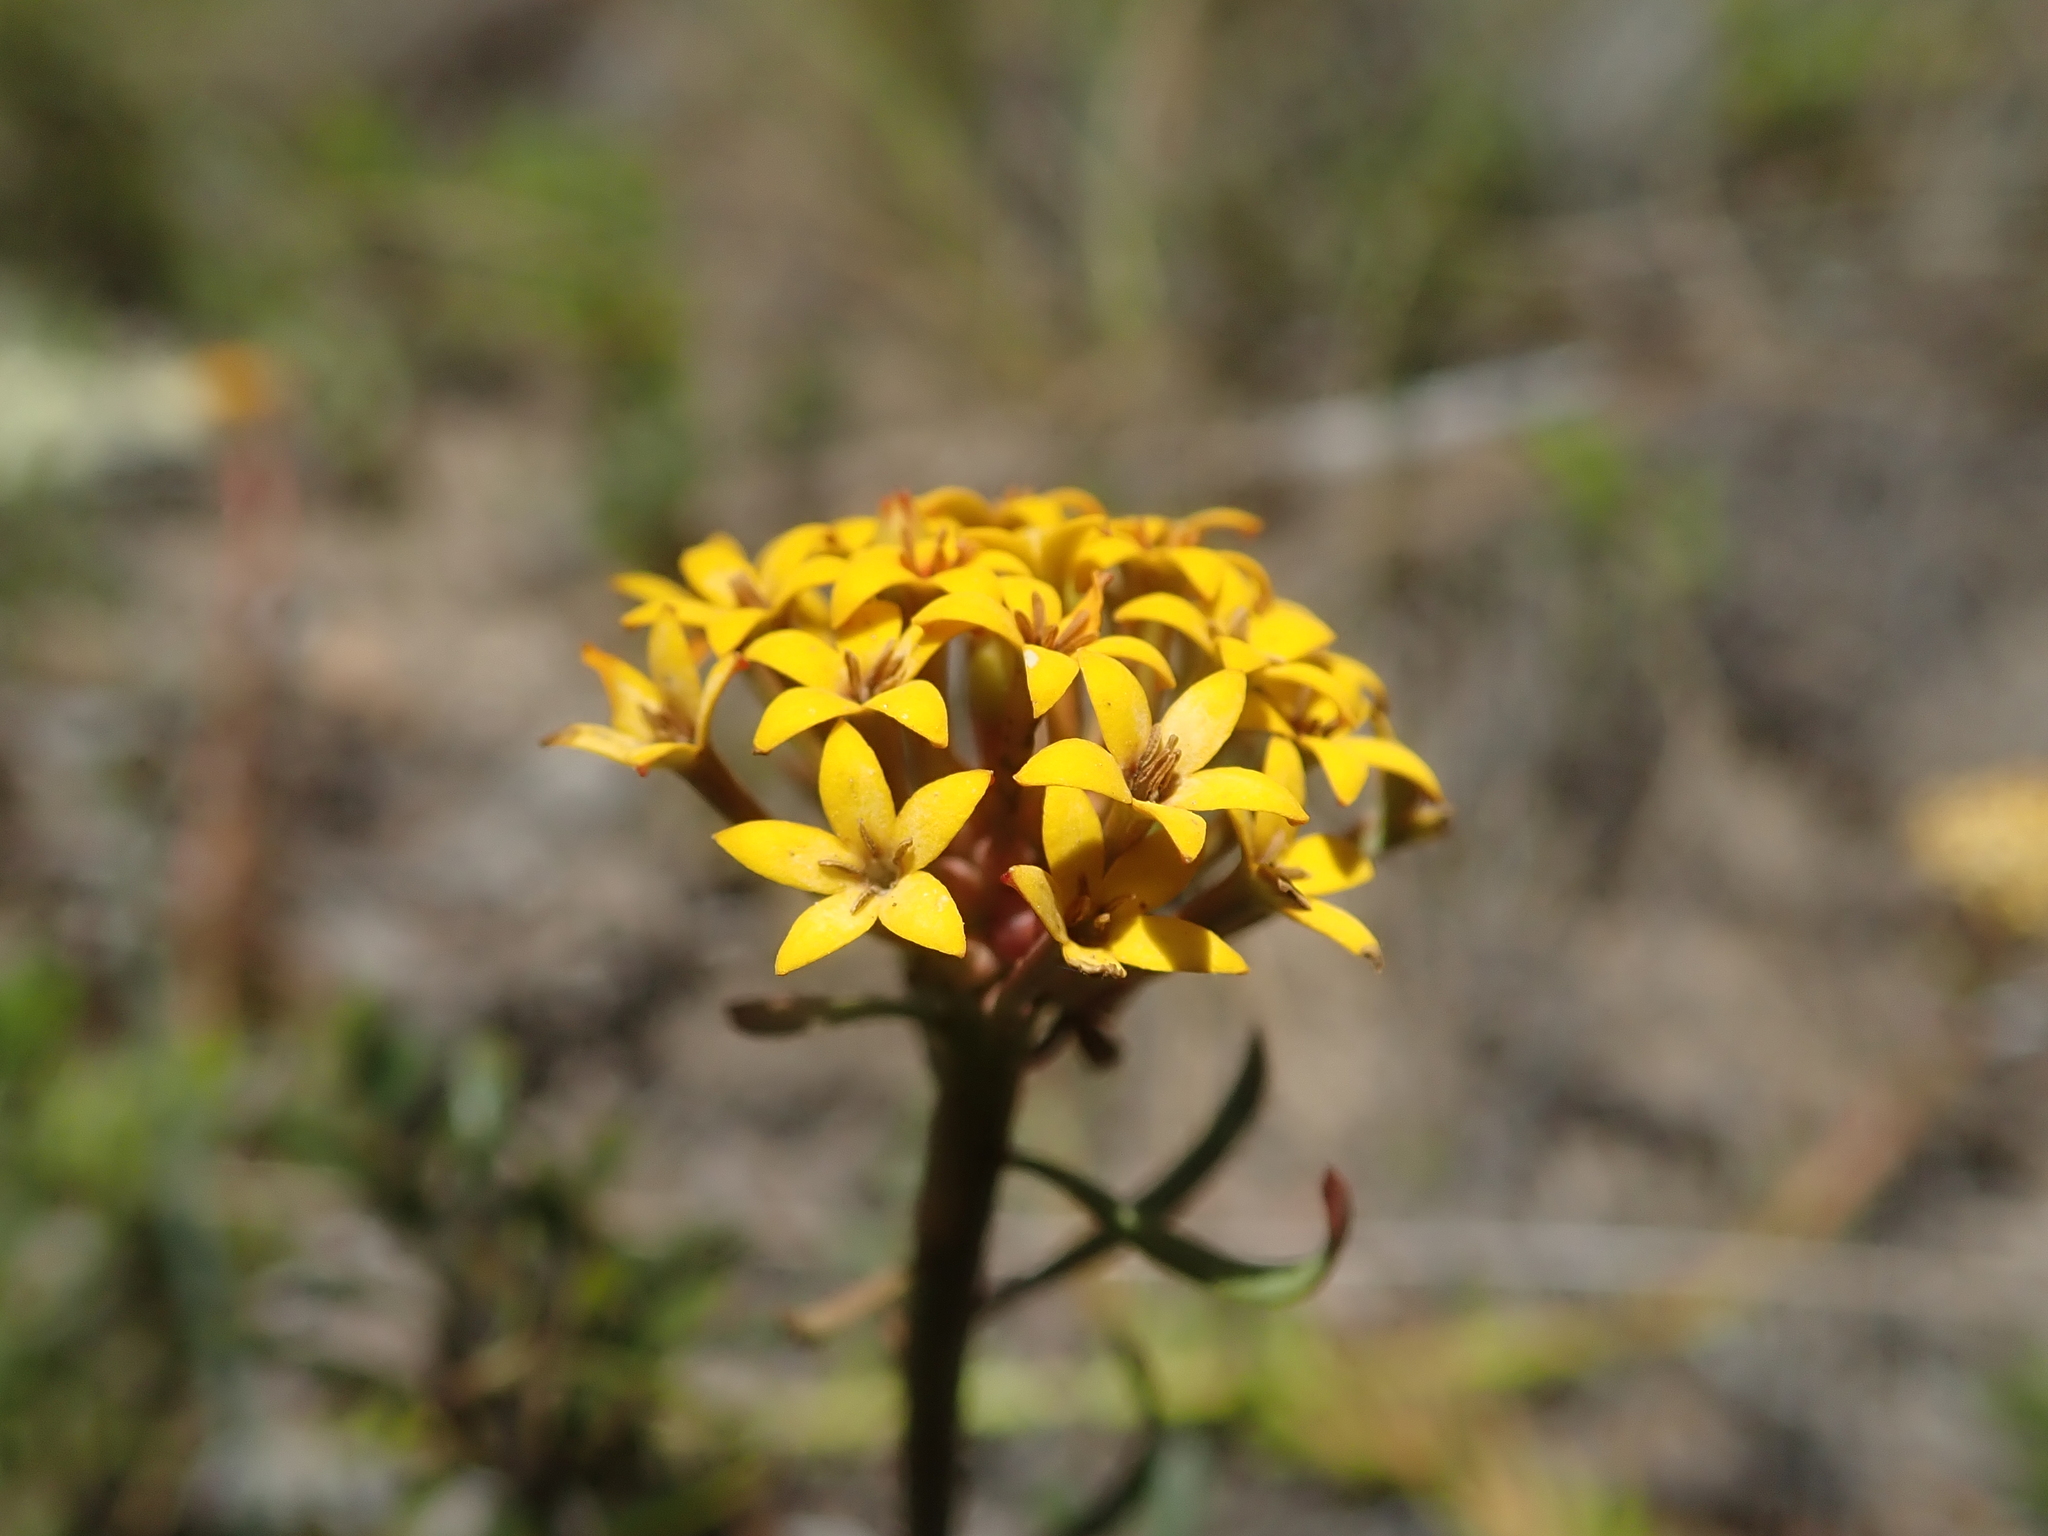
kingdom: Plantae
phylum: Tracheophyta
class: Magnoliopsida
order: Santalales
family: Schoepfiaceae
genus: Quinchamalium
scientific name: Quinchamalium chilense
